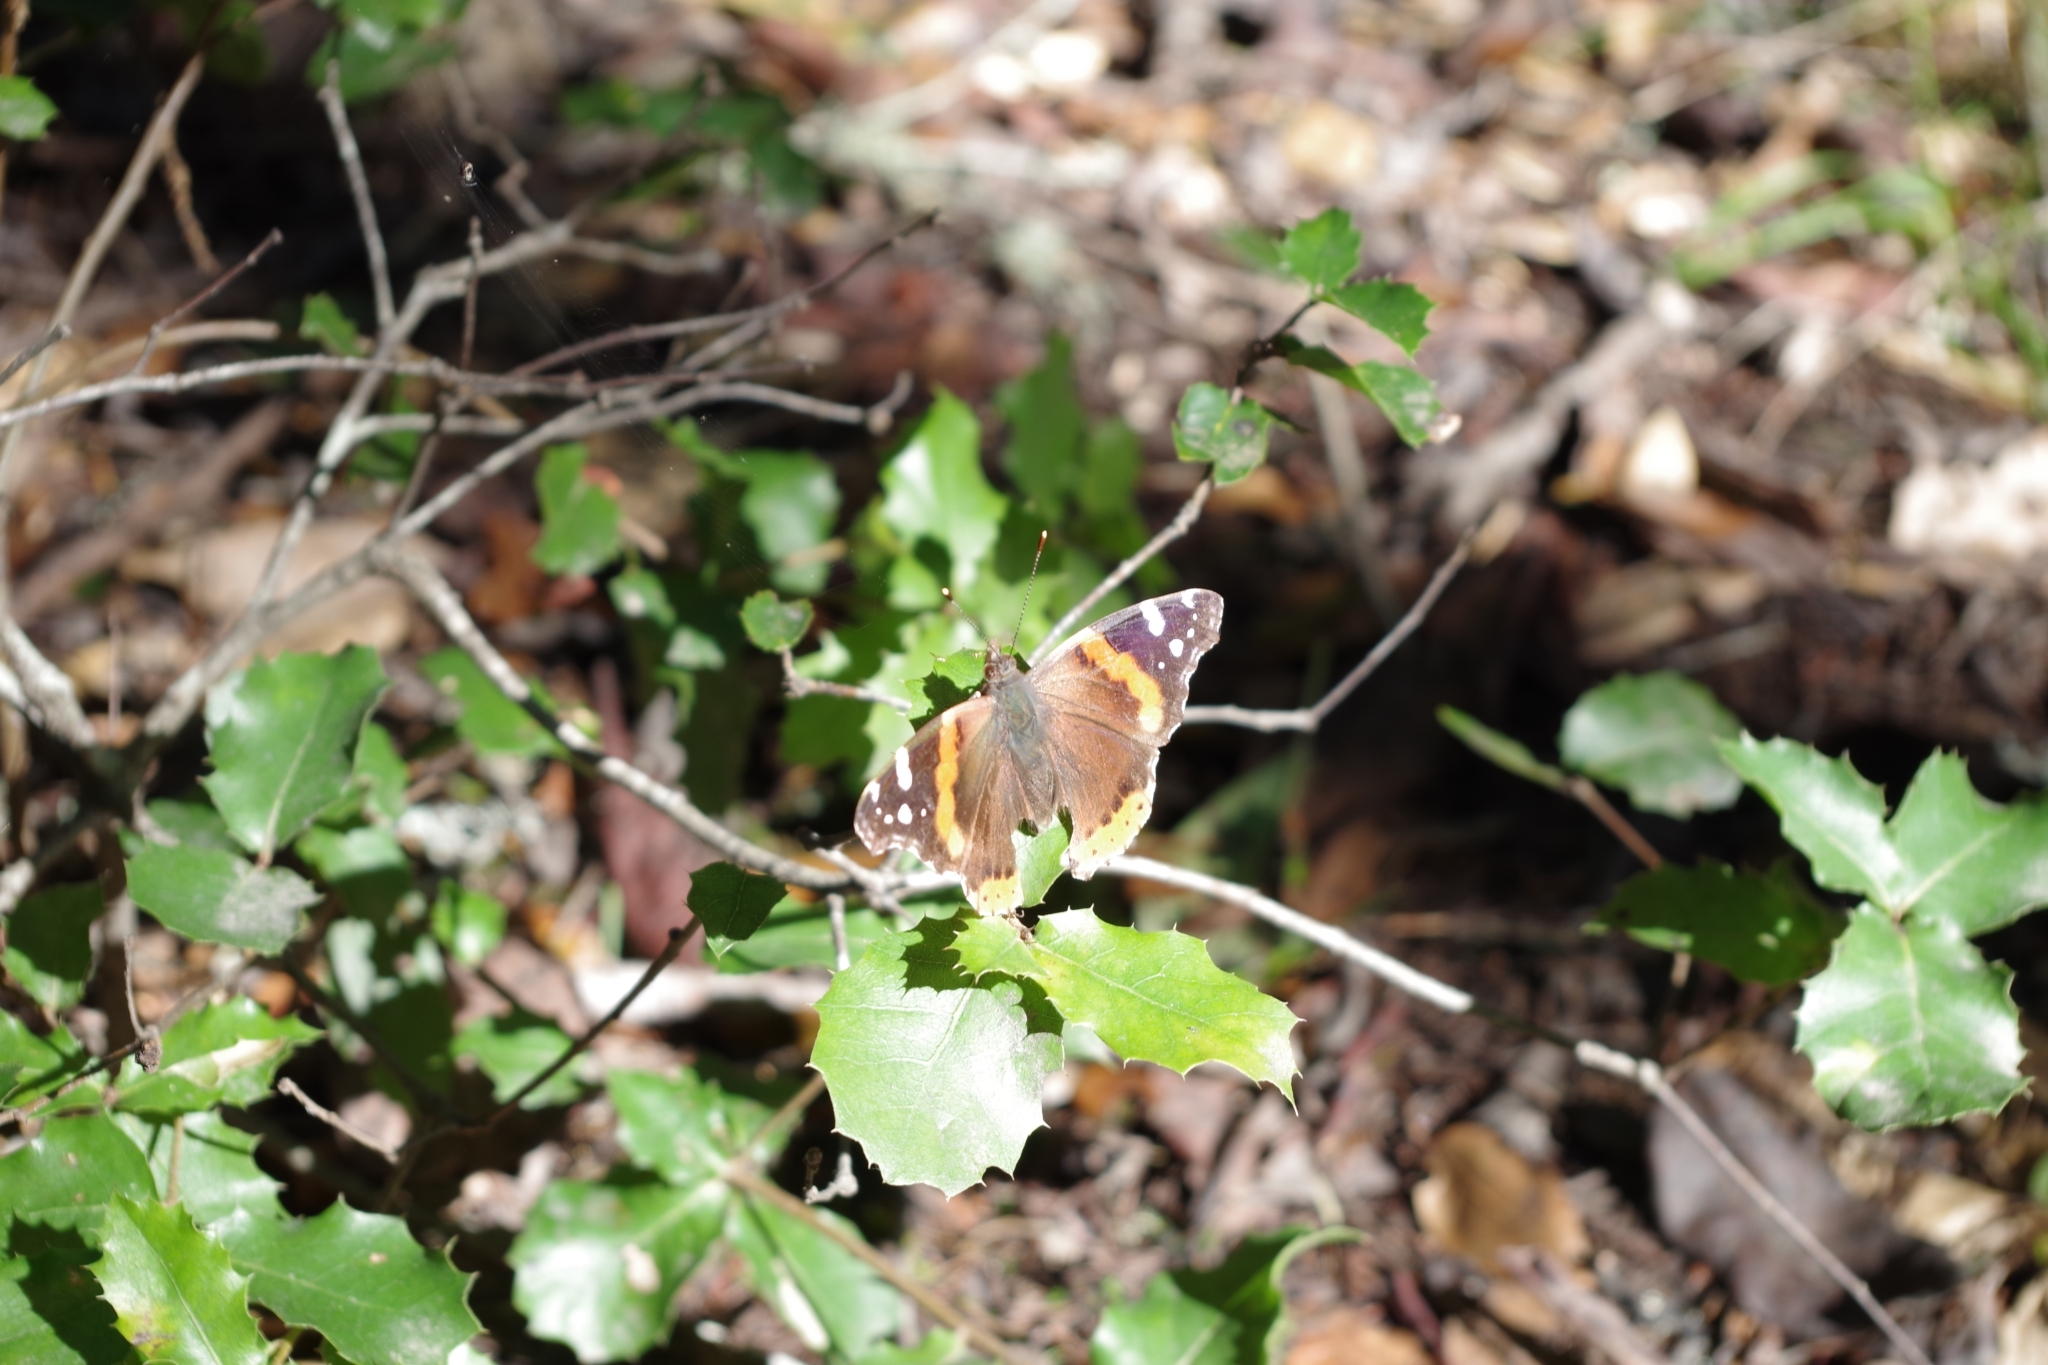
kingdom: Animalia
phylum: Arthropoda
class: Insecta
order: Lepidoptera
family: Nymphalidae
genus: Vanessa
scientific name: Vanessa atalanta
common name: Red admiral
